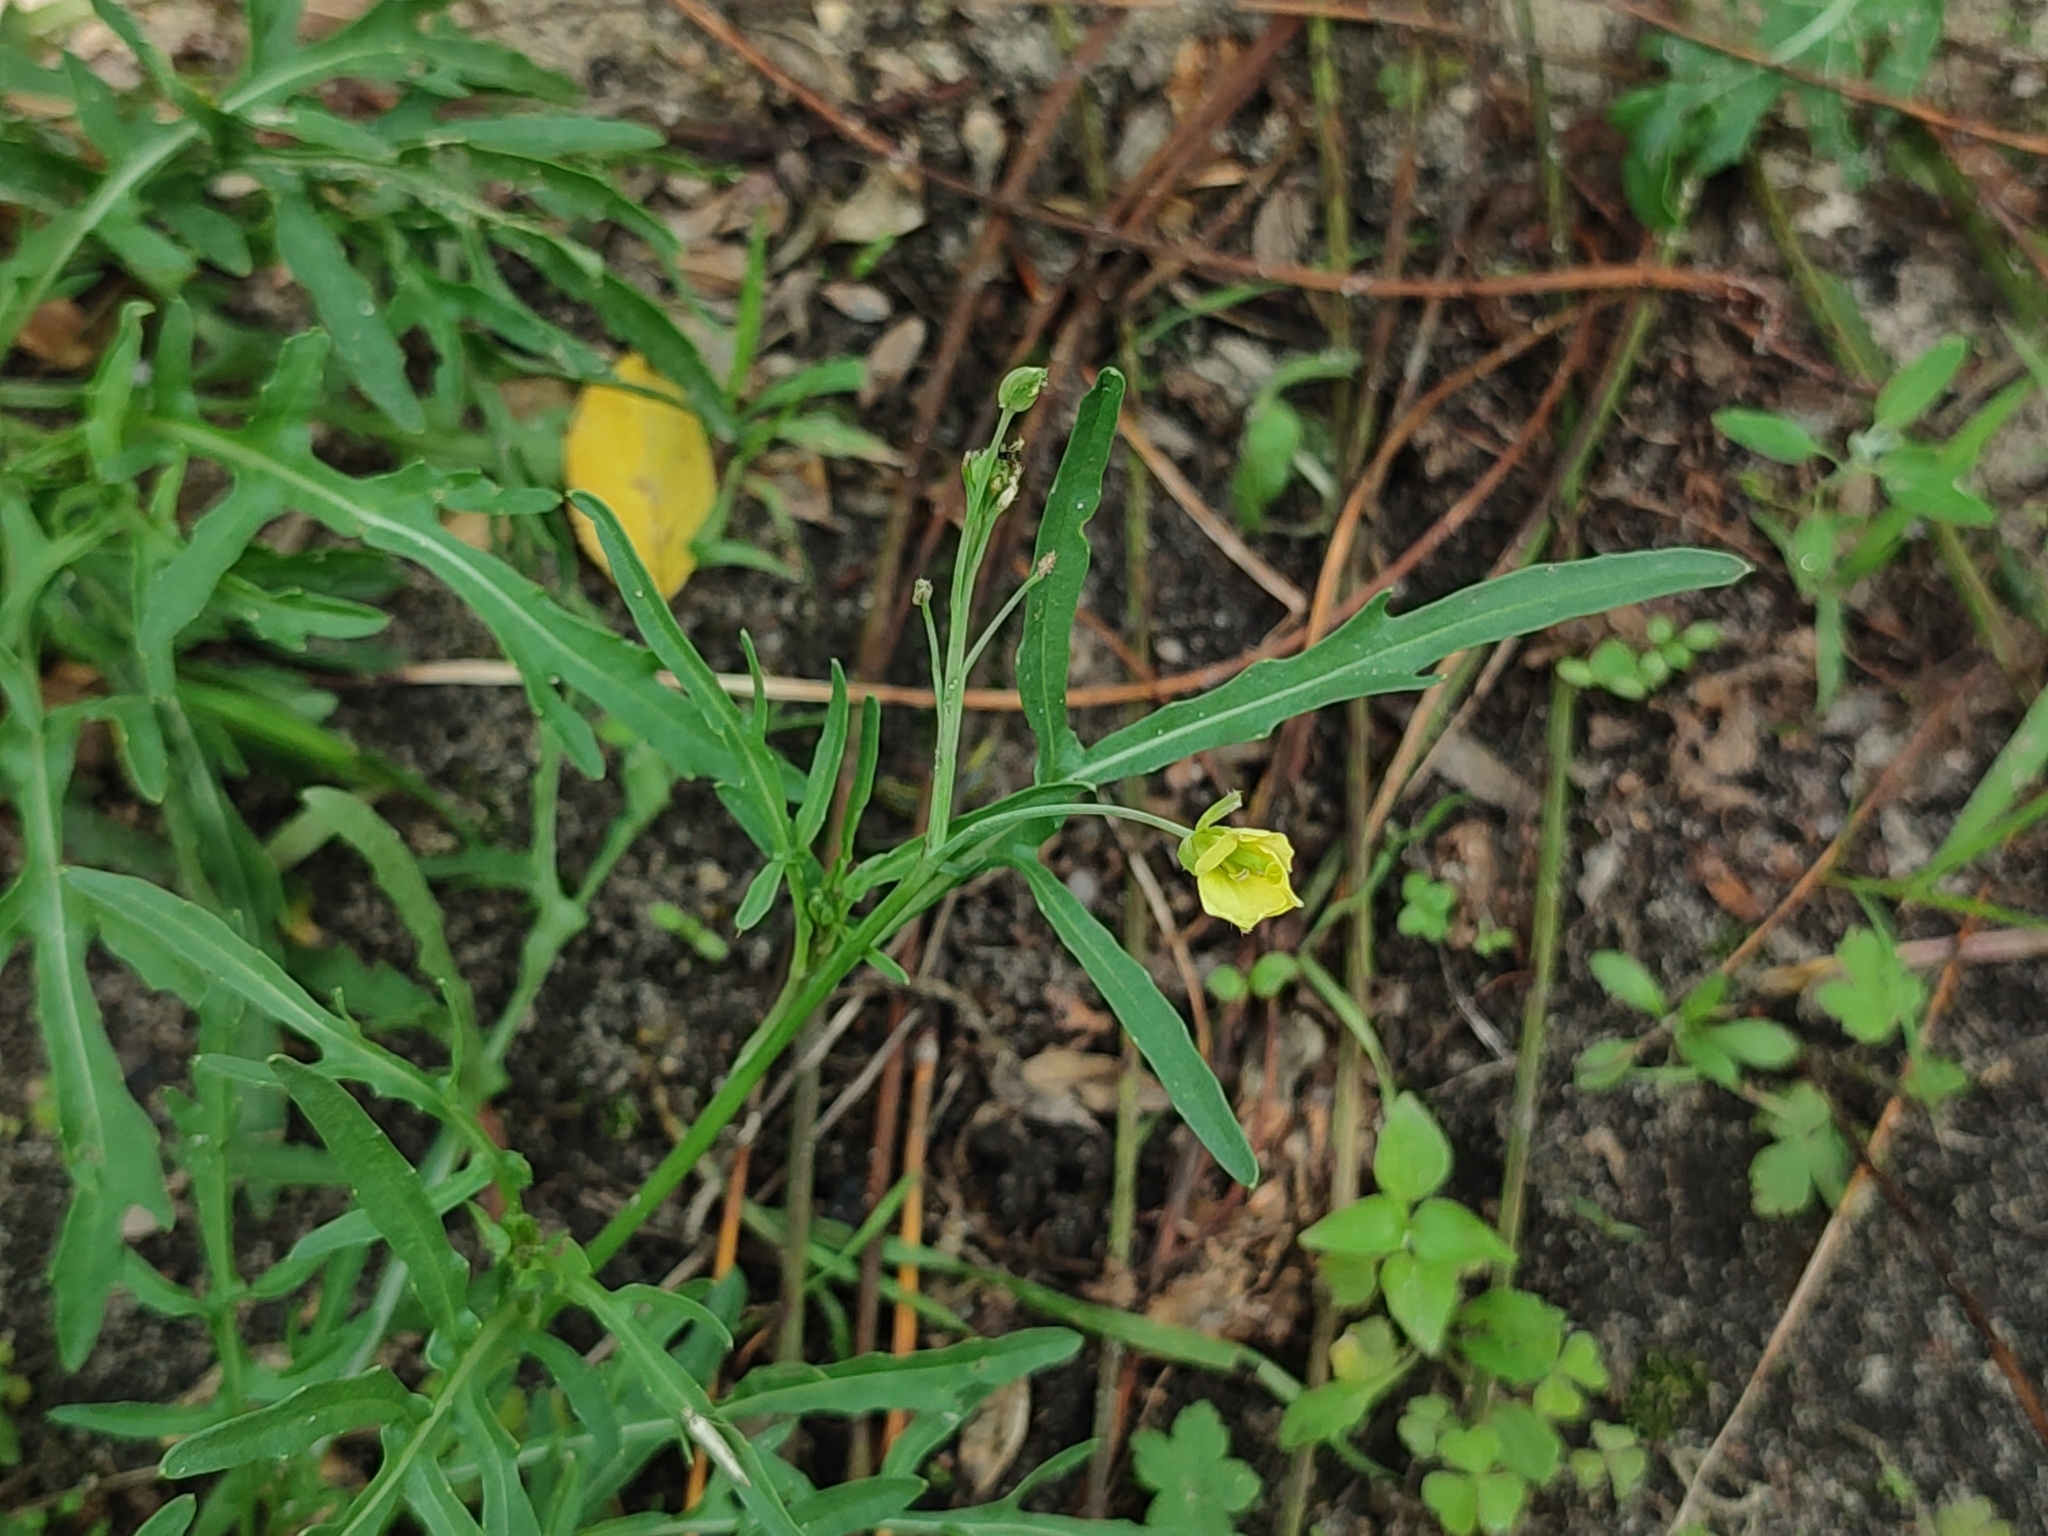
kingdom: Plantae
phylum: Tracheophyta
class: Magnoliopsida
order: Brassicales
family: Brassicaceae
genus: Diplotaxis
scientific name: Diplotaxis tenuifolia
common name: Perennial wall-rocket
